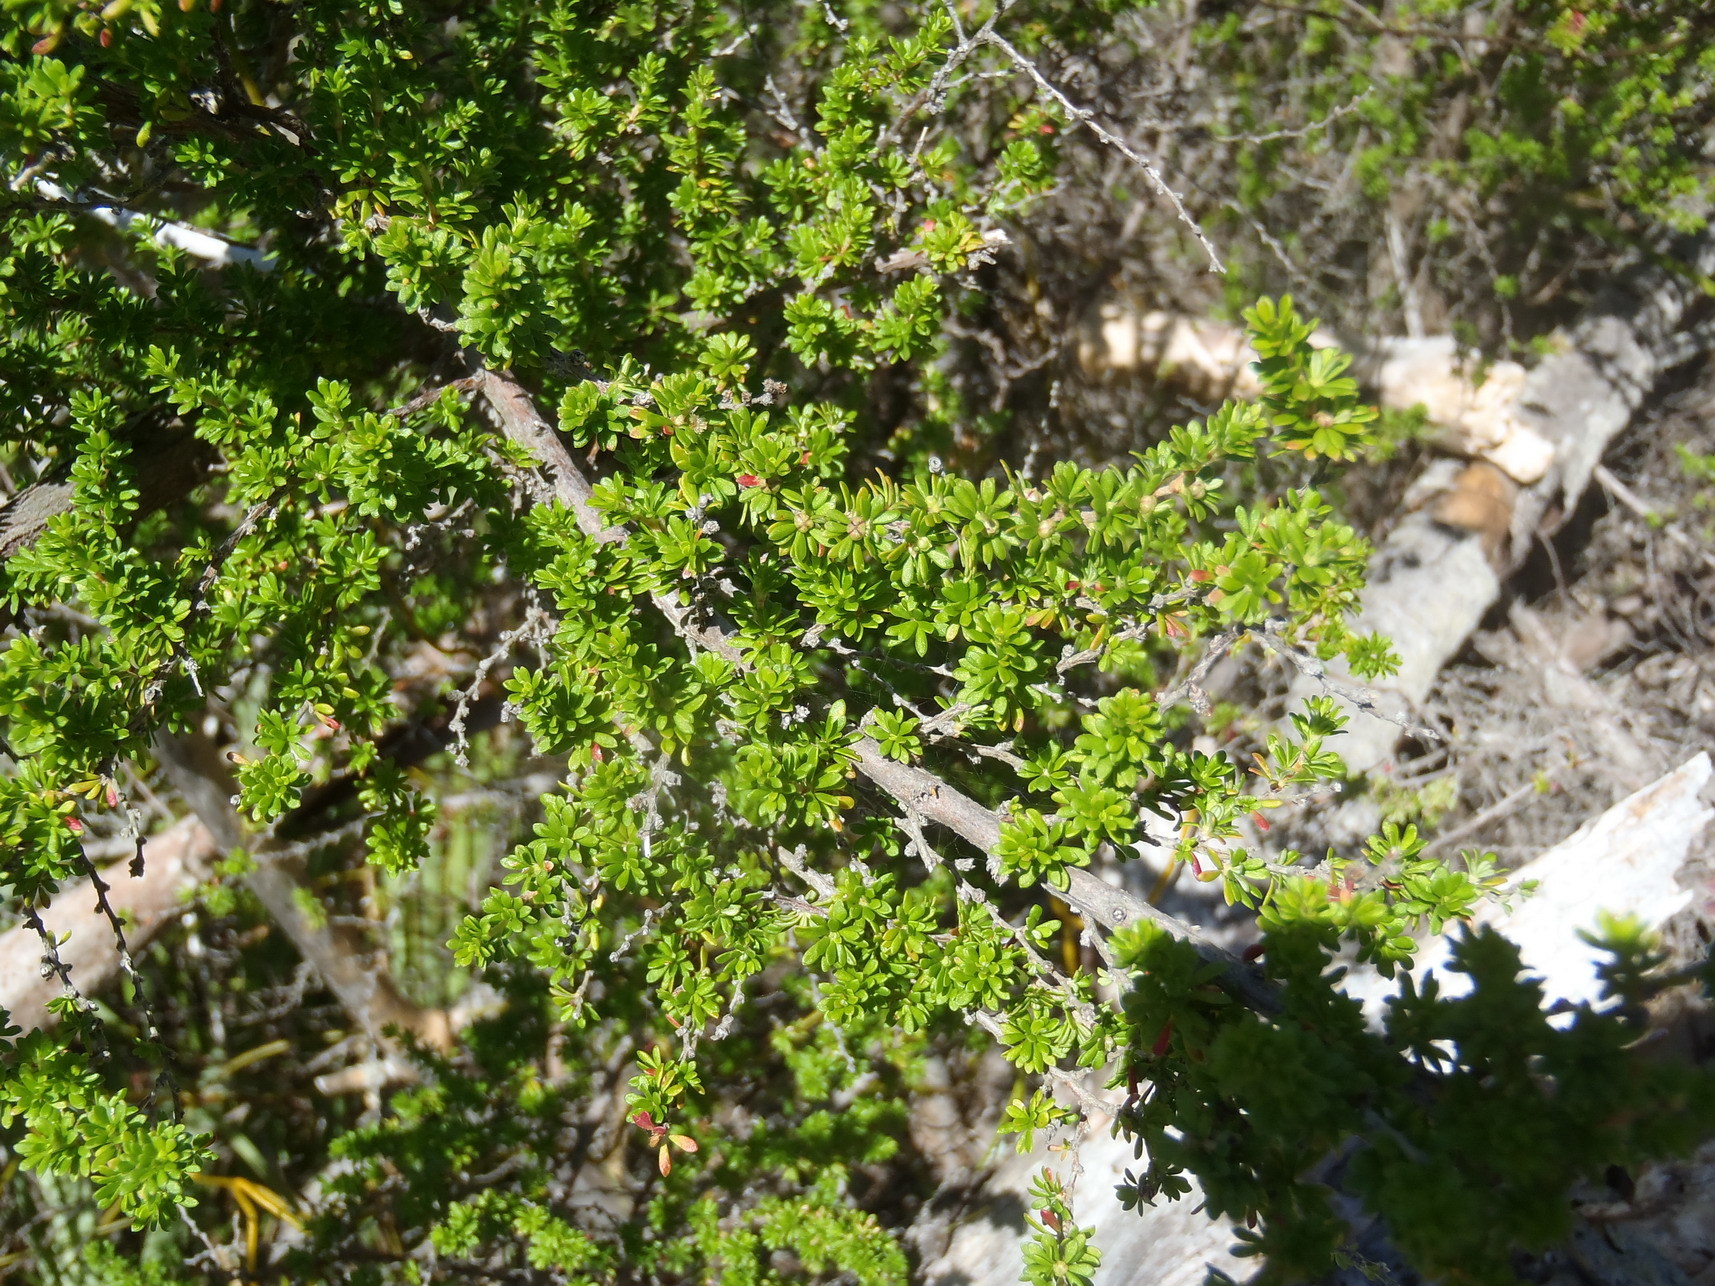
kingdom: Plantae
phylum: Tracheophyta
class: Magnoliopsida
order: Rosales
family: Rosaceae
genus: Cliffortia
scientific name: Cliffortia serpyllifolia
